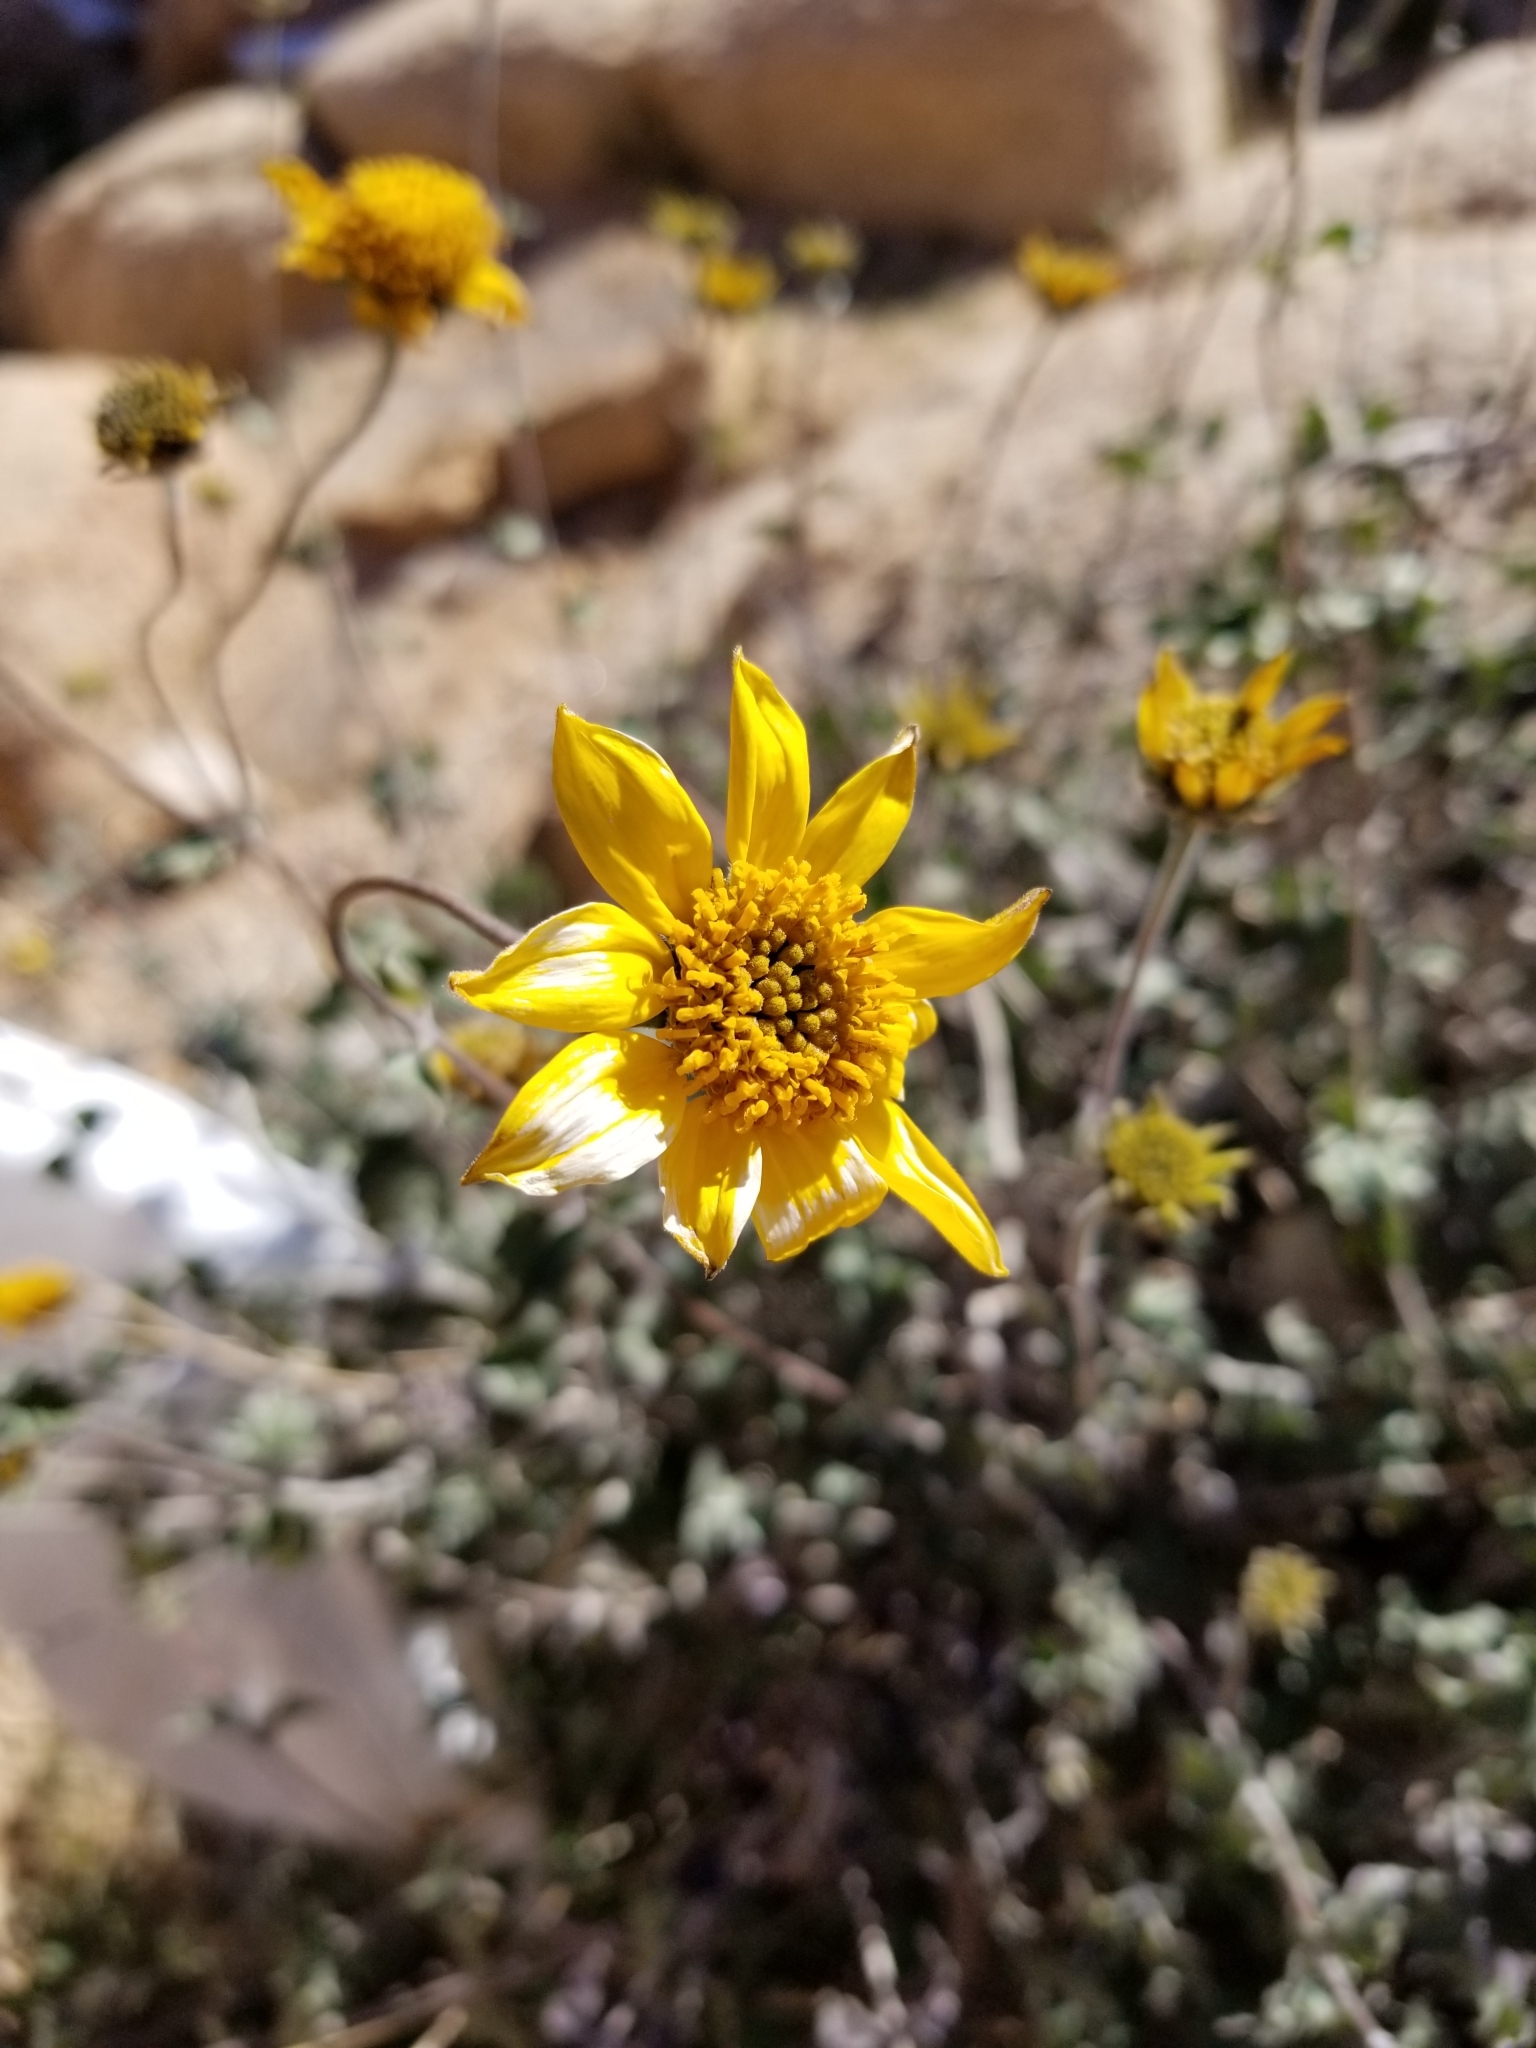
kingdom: Plantae
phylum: Tracheophyta
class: Magnoliopsida
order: Asterales
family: Asteraceae
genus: Bahiopsis
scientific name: Bahiopsis parishii
